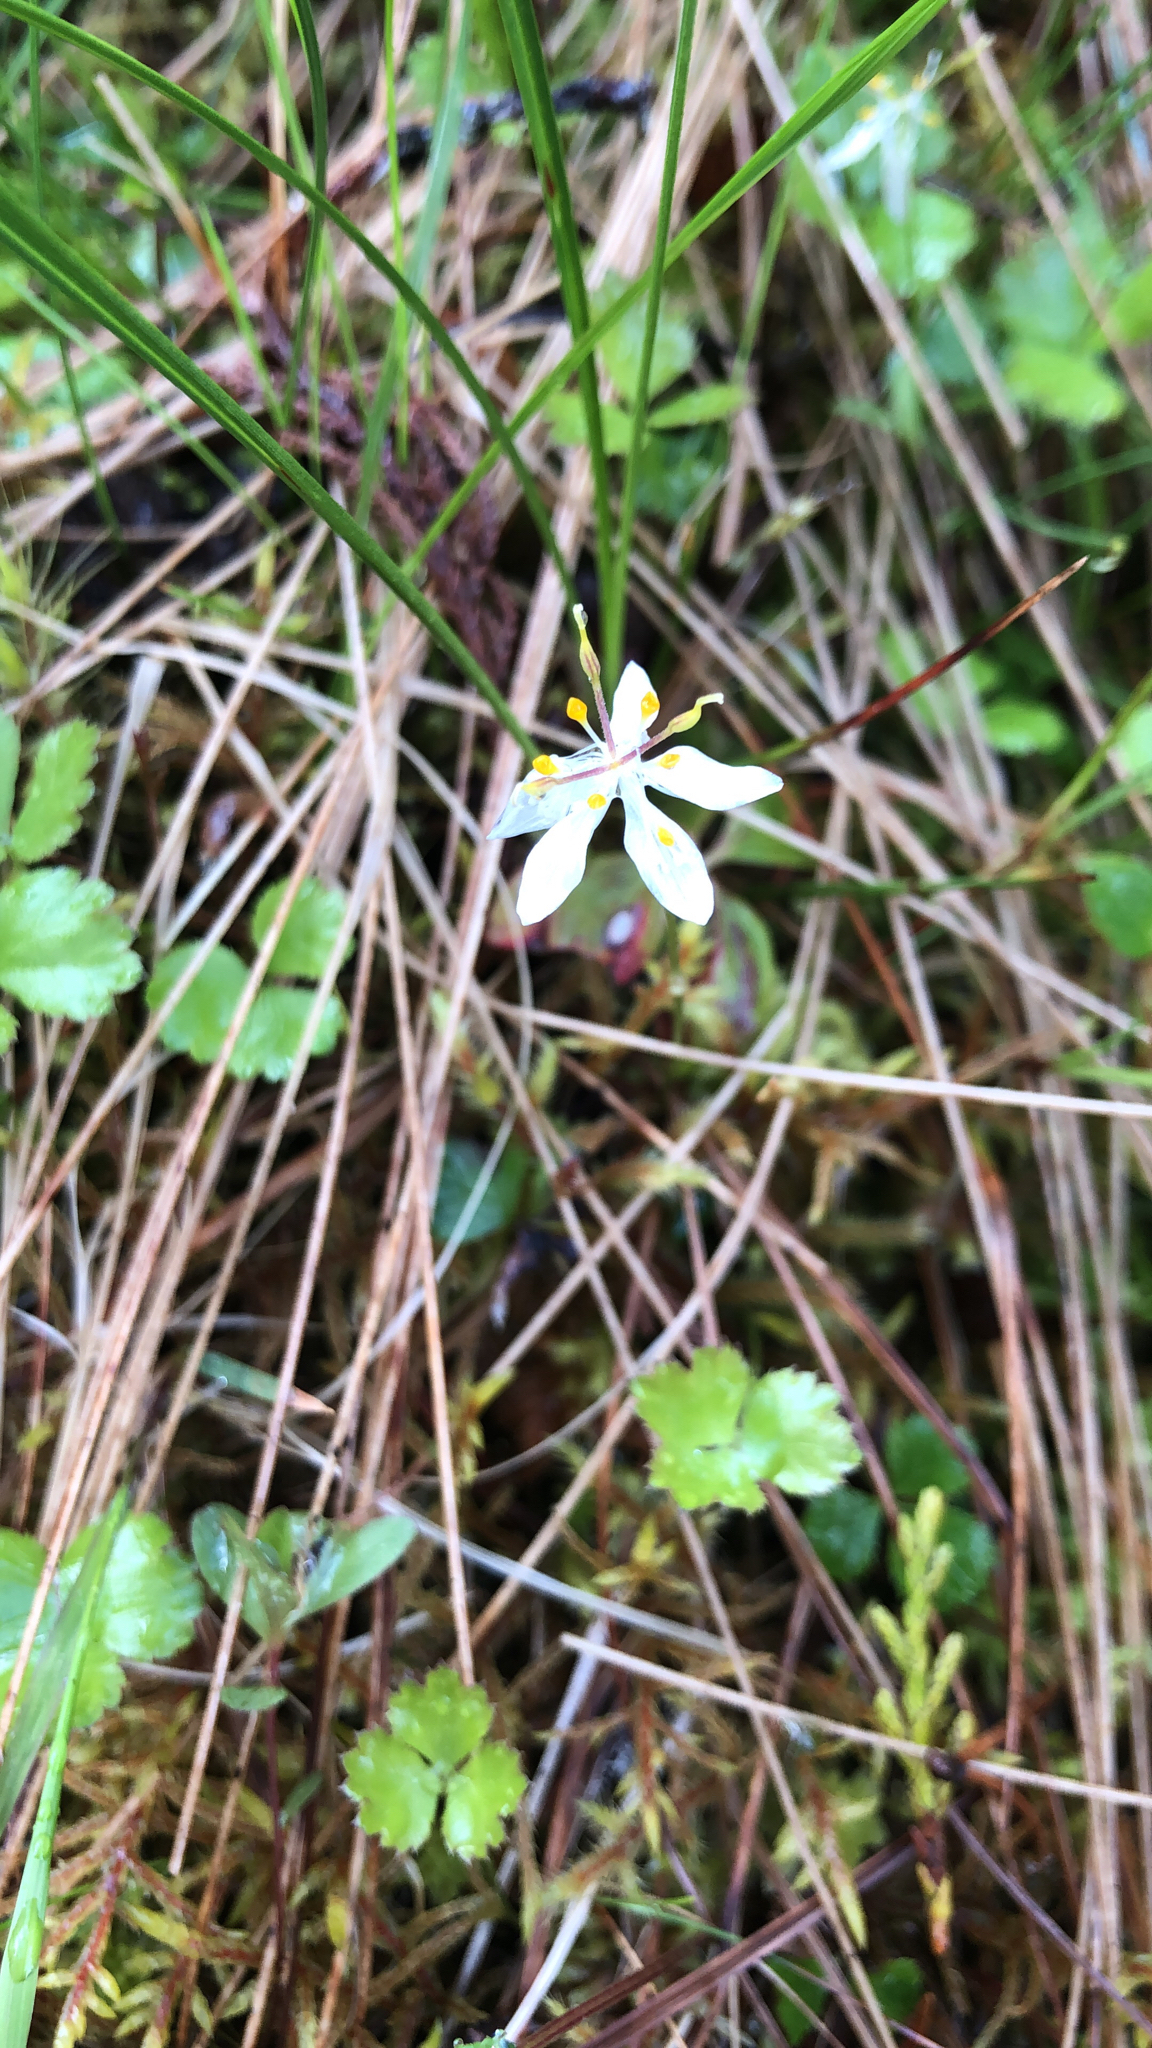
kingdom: Plantae
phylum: Tracheophyta
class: Magnoliopsida
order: Ranunculales
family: Ranunculaceae
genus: Coptis
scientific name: Coptis trifolia
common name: Canker-root
